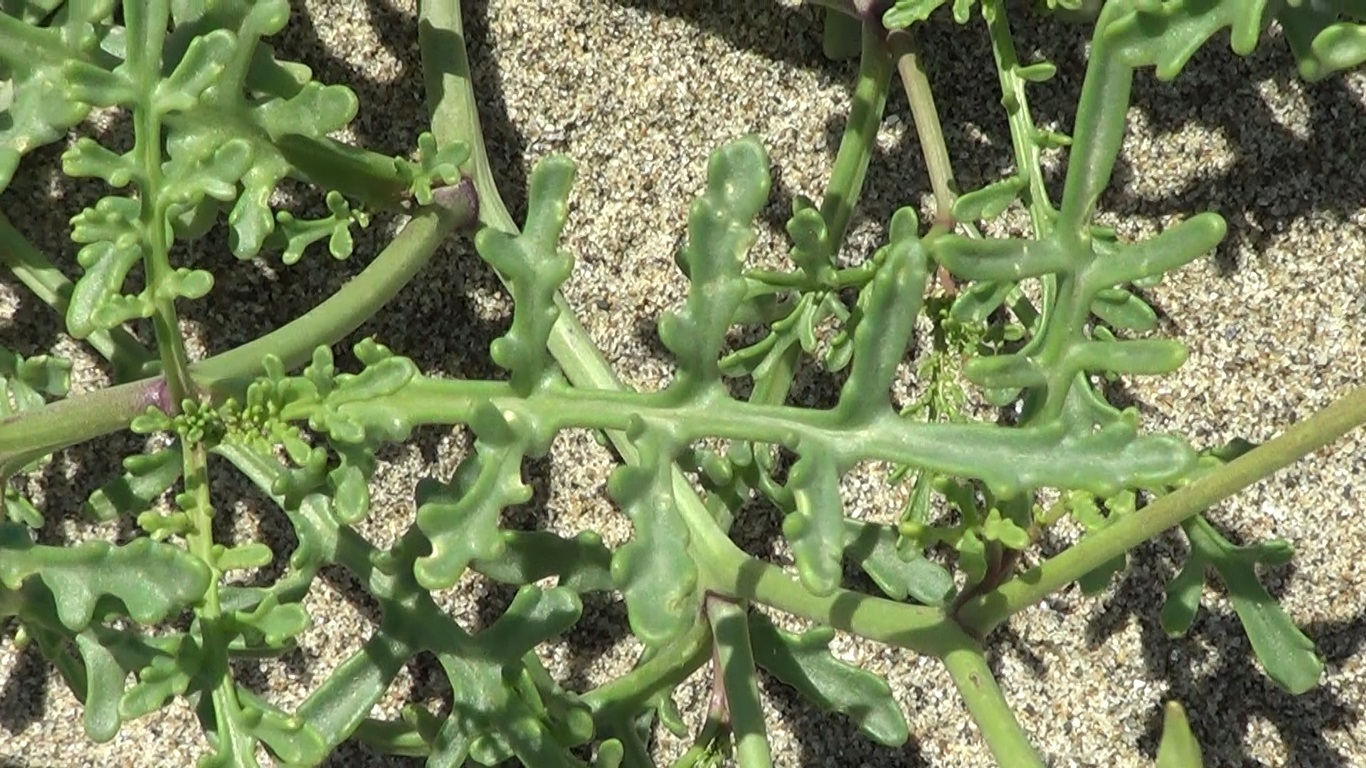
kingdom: Plantae
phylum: Tracheophyta
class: Magnoliopsida
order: Brassicales
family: Brassicaceae
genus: Cakile
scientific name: Cakile maritima
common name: Sea rocket
